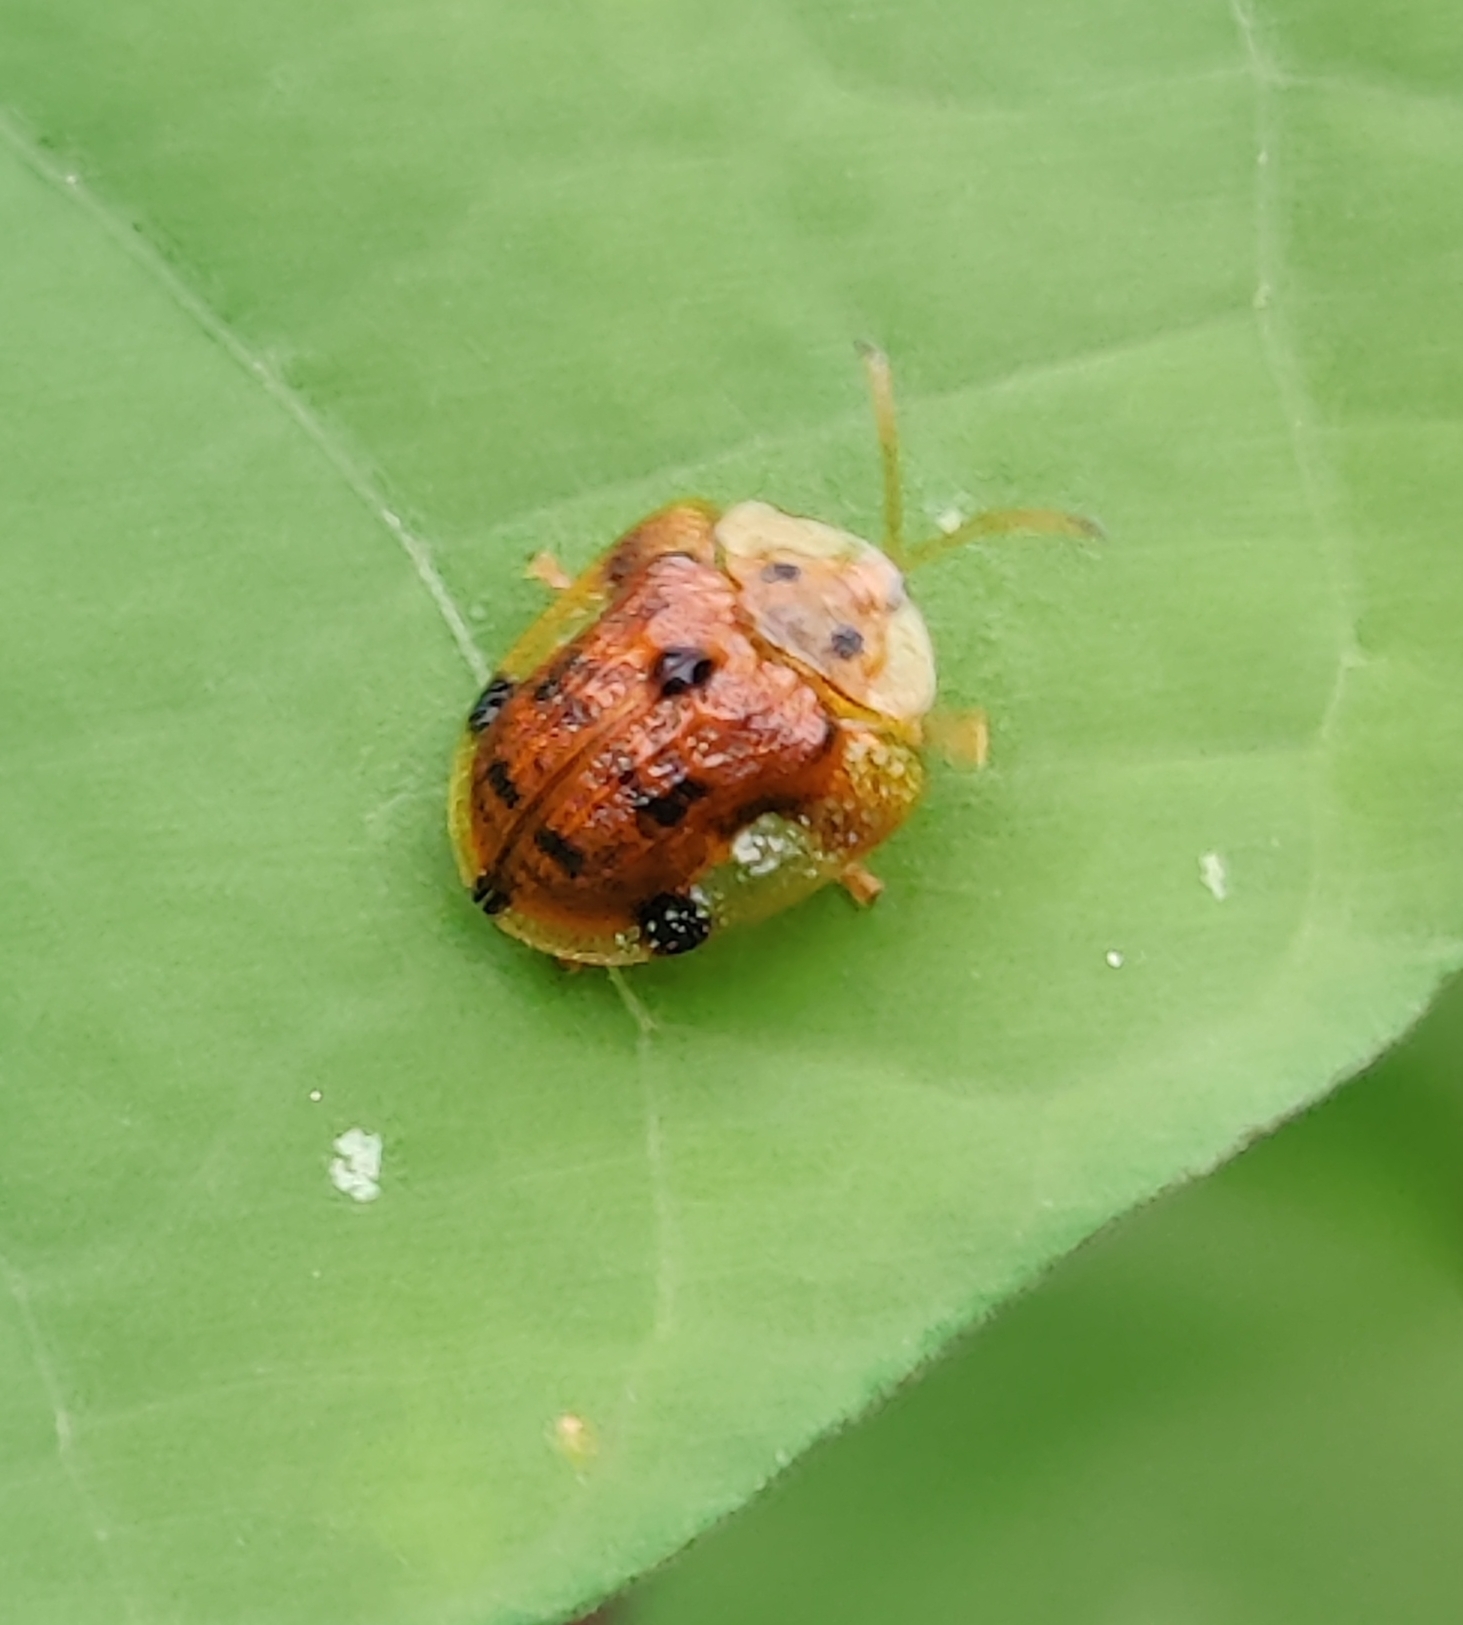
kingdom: Animalia
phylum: Arthropoda
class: Insecta
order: Coleoptera
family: Chrysomelidae
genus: Laccoptera
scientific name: Laccoptera nepalensis
